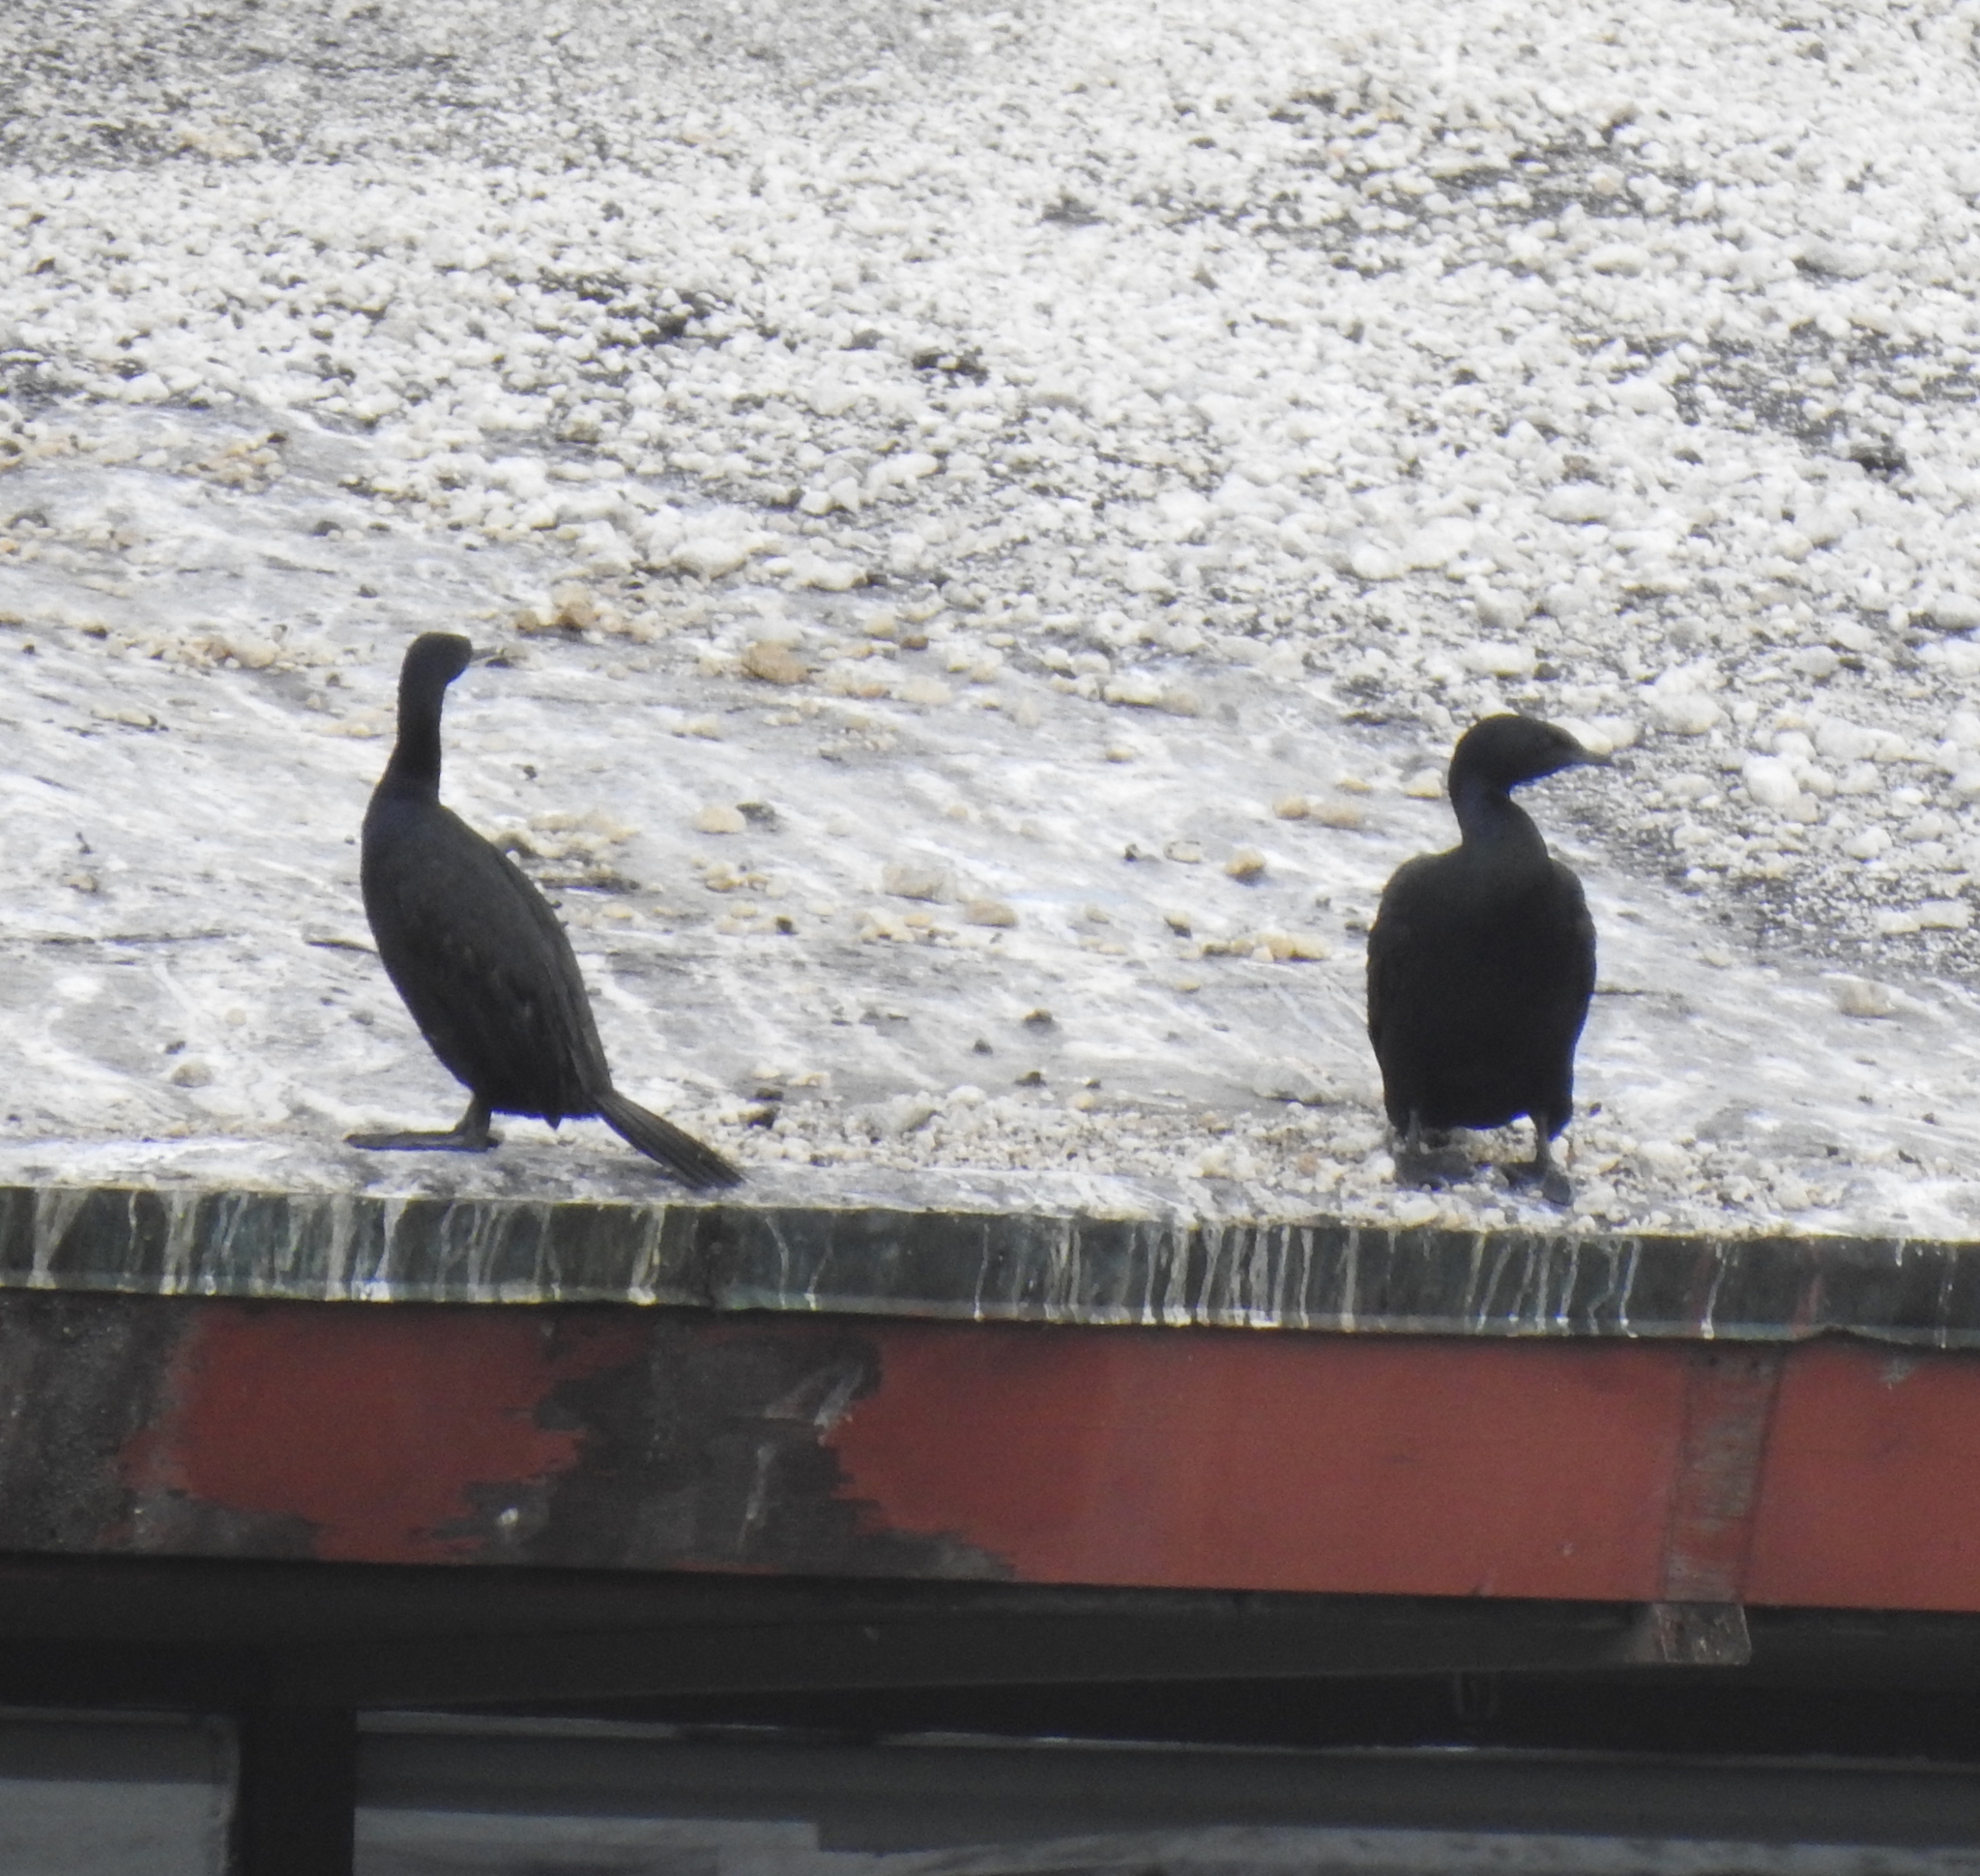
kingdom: Animalia
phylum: Chordata
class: Aves
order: Suliformes
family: Phalacrocoracidae
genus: Phalacrocorax
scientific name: Phalacrocorax pelagicus
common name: Pelagic cormorant
